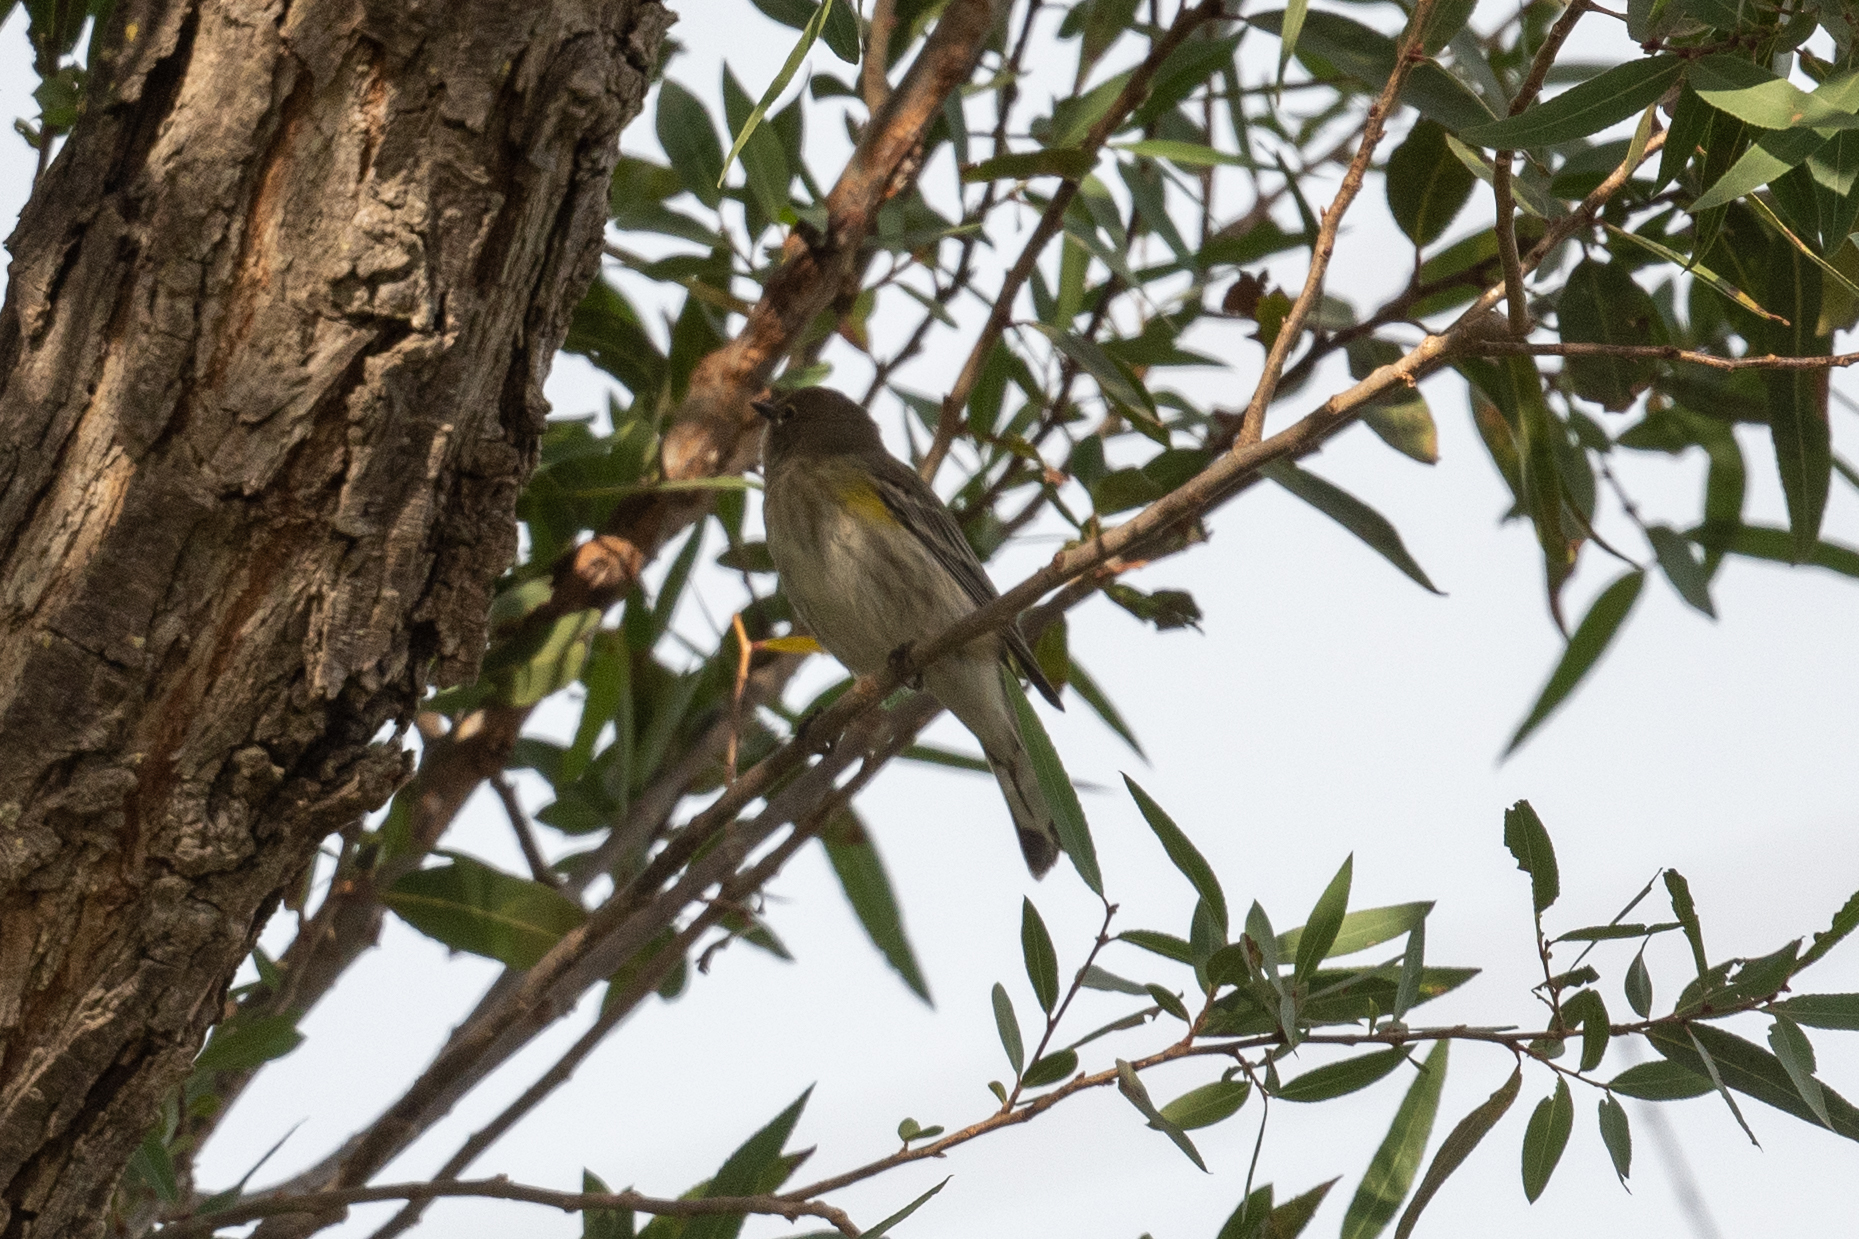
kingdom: Animalia
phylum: Chordata
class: Aves
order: Passeriformes
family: Parulidae
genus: Setophaga
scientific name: Setophaga coronata
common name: Myrtle warbler
